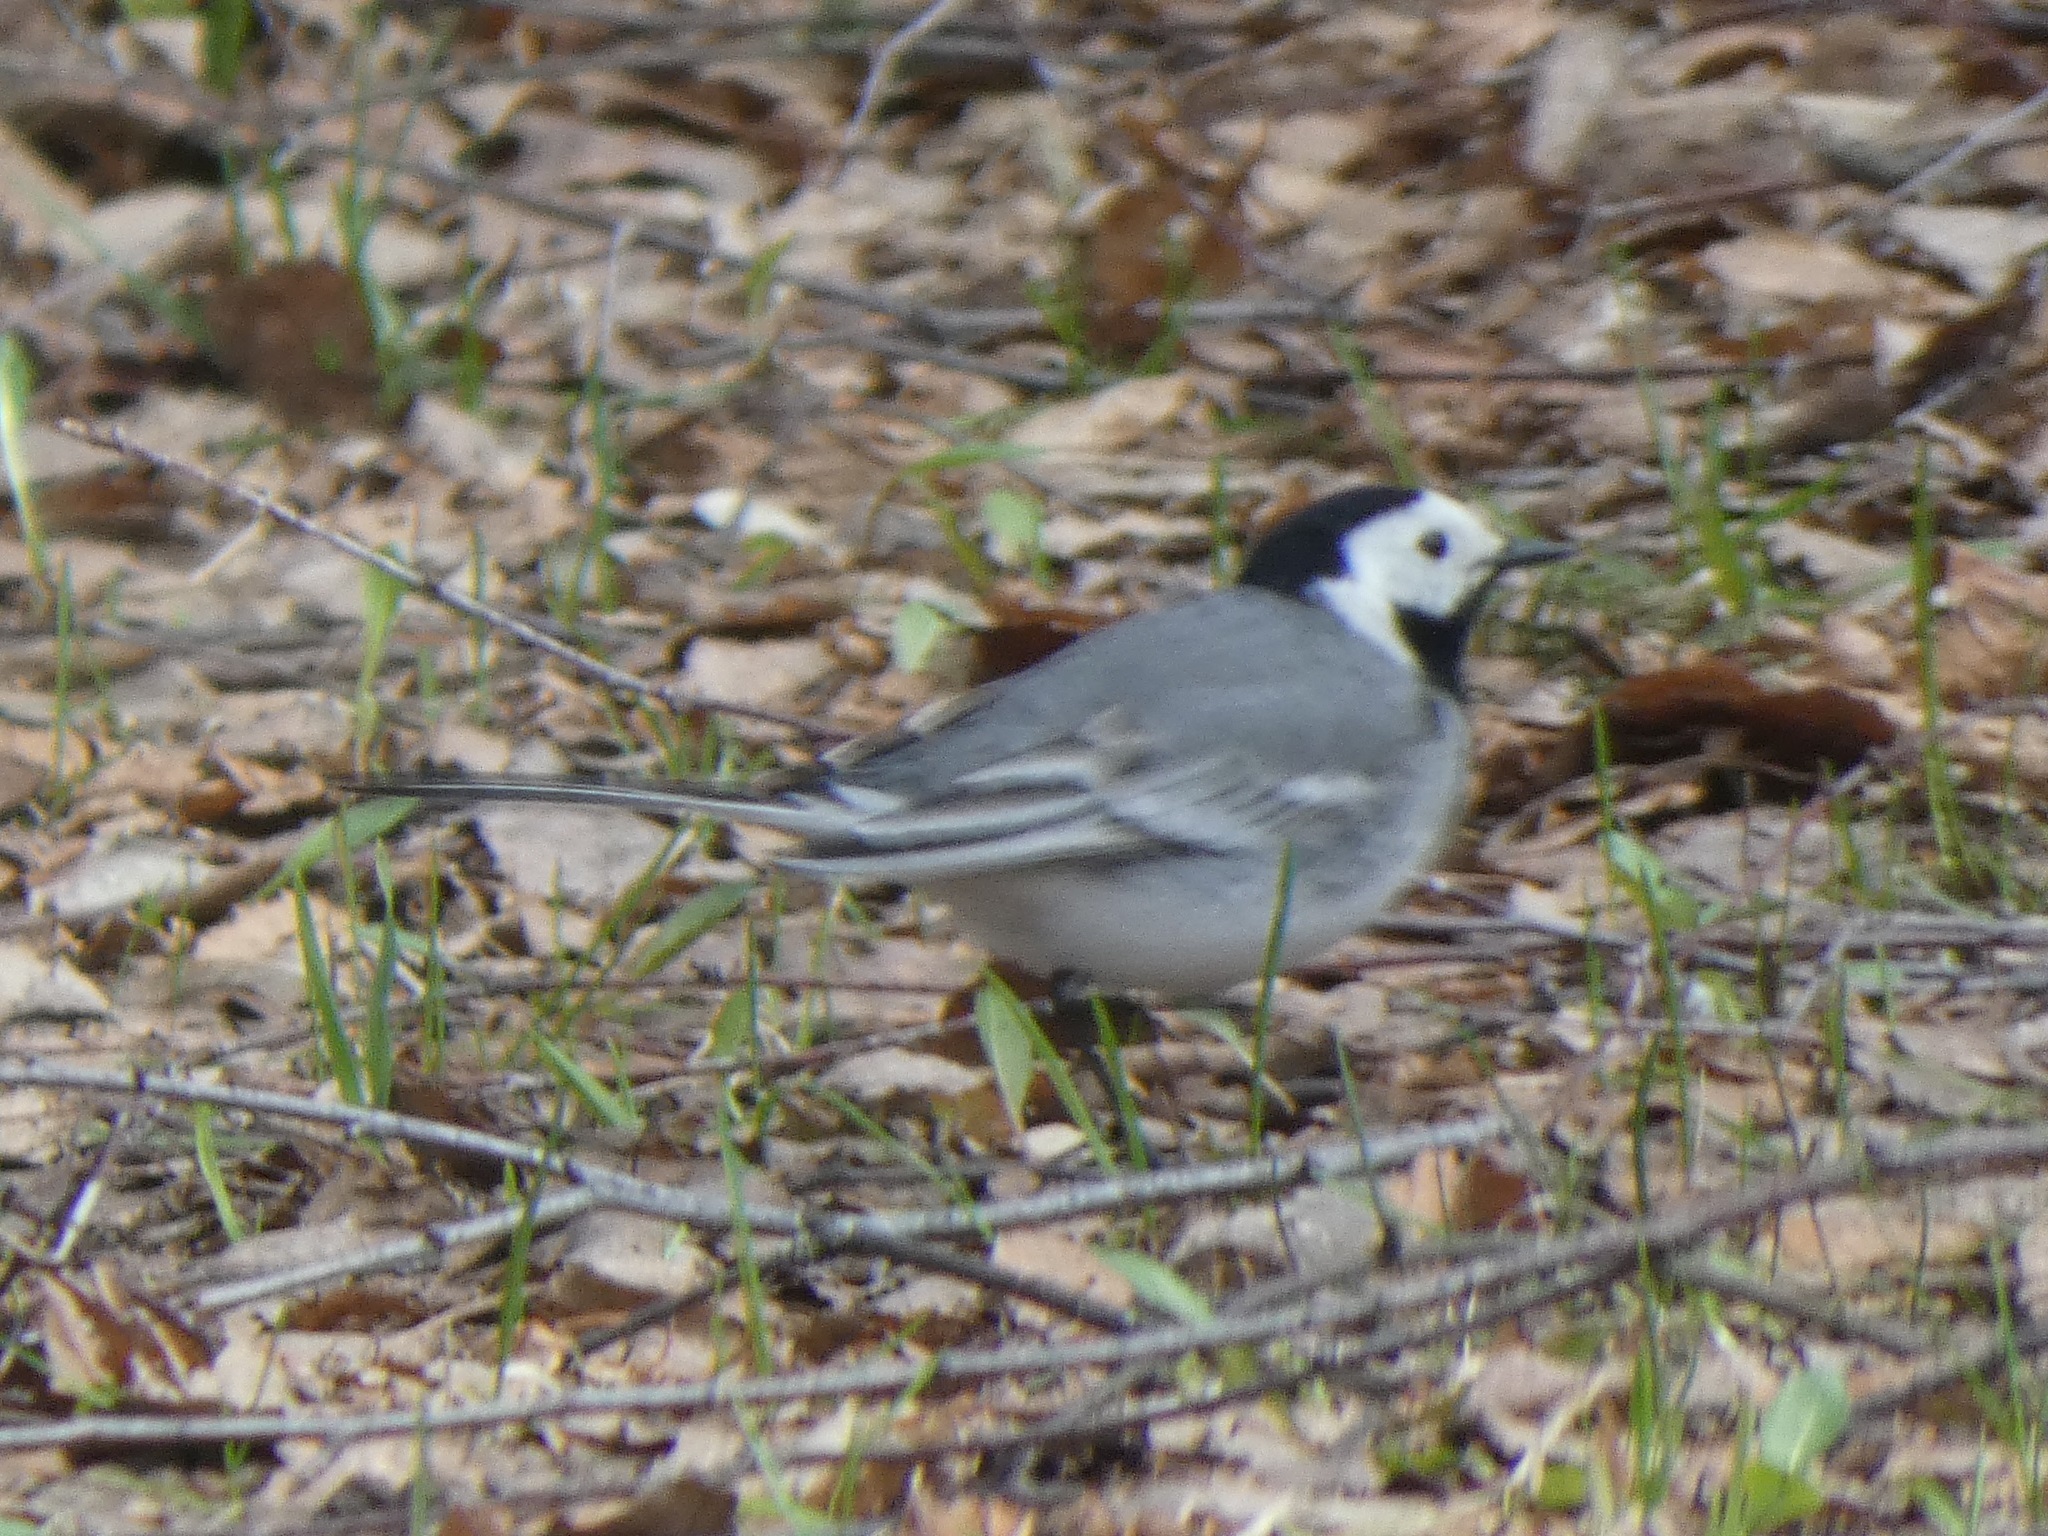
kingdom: Animalia
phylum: Chordata
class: Aves
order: Passeriformes
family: Motacillidae
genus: Motacilla
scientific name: Motacilla alba
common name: White wagtail
